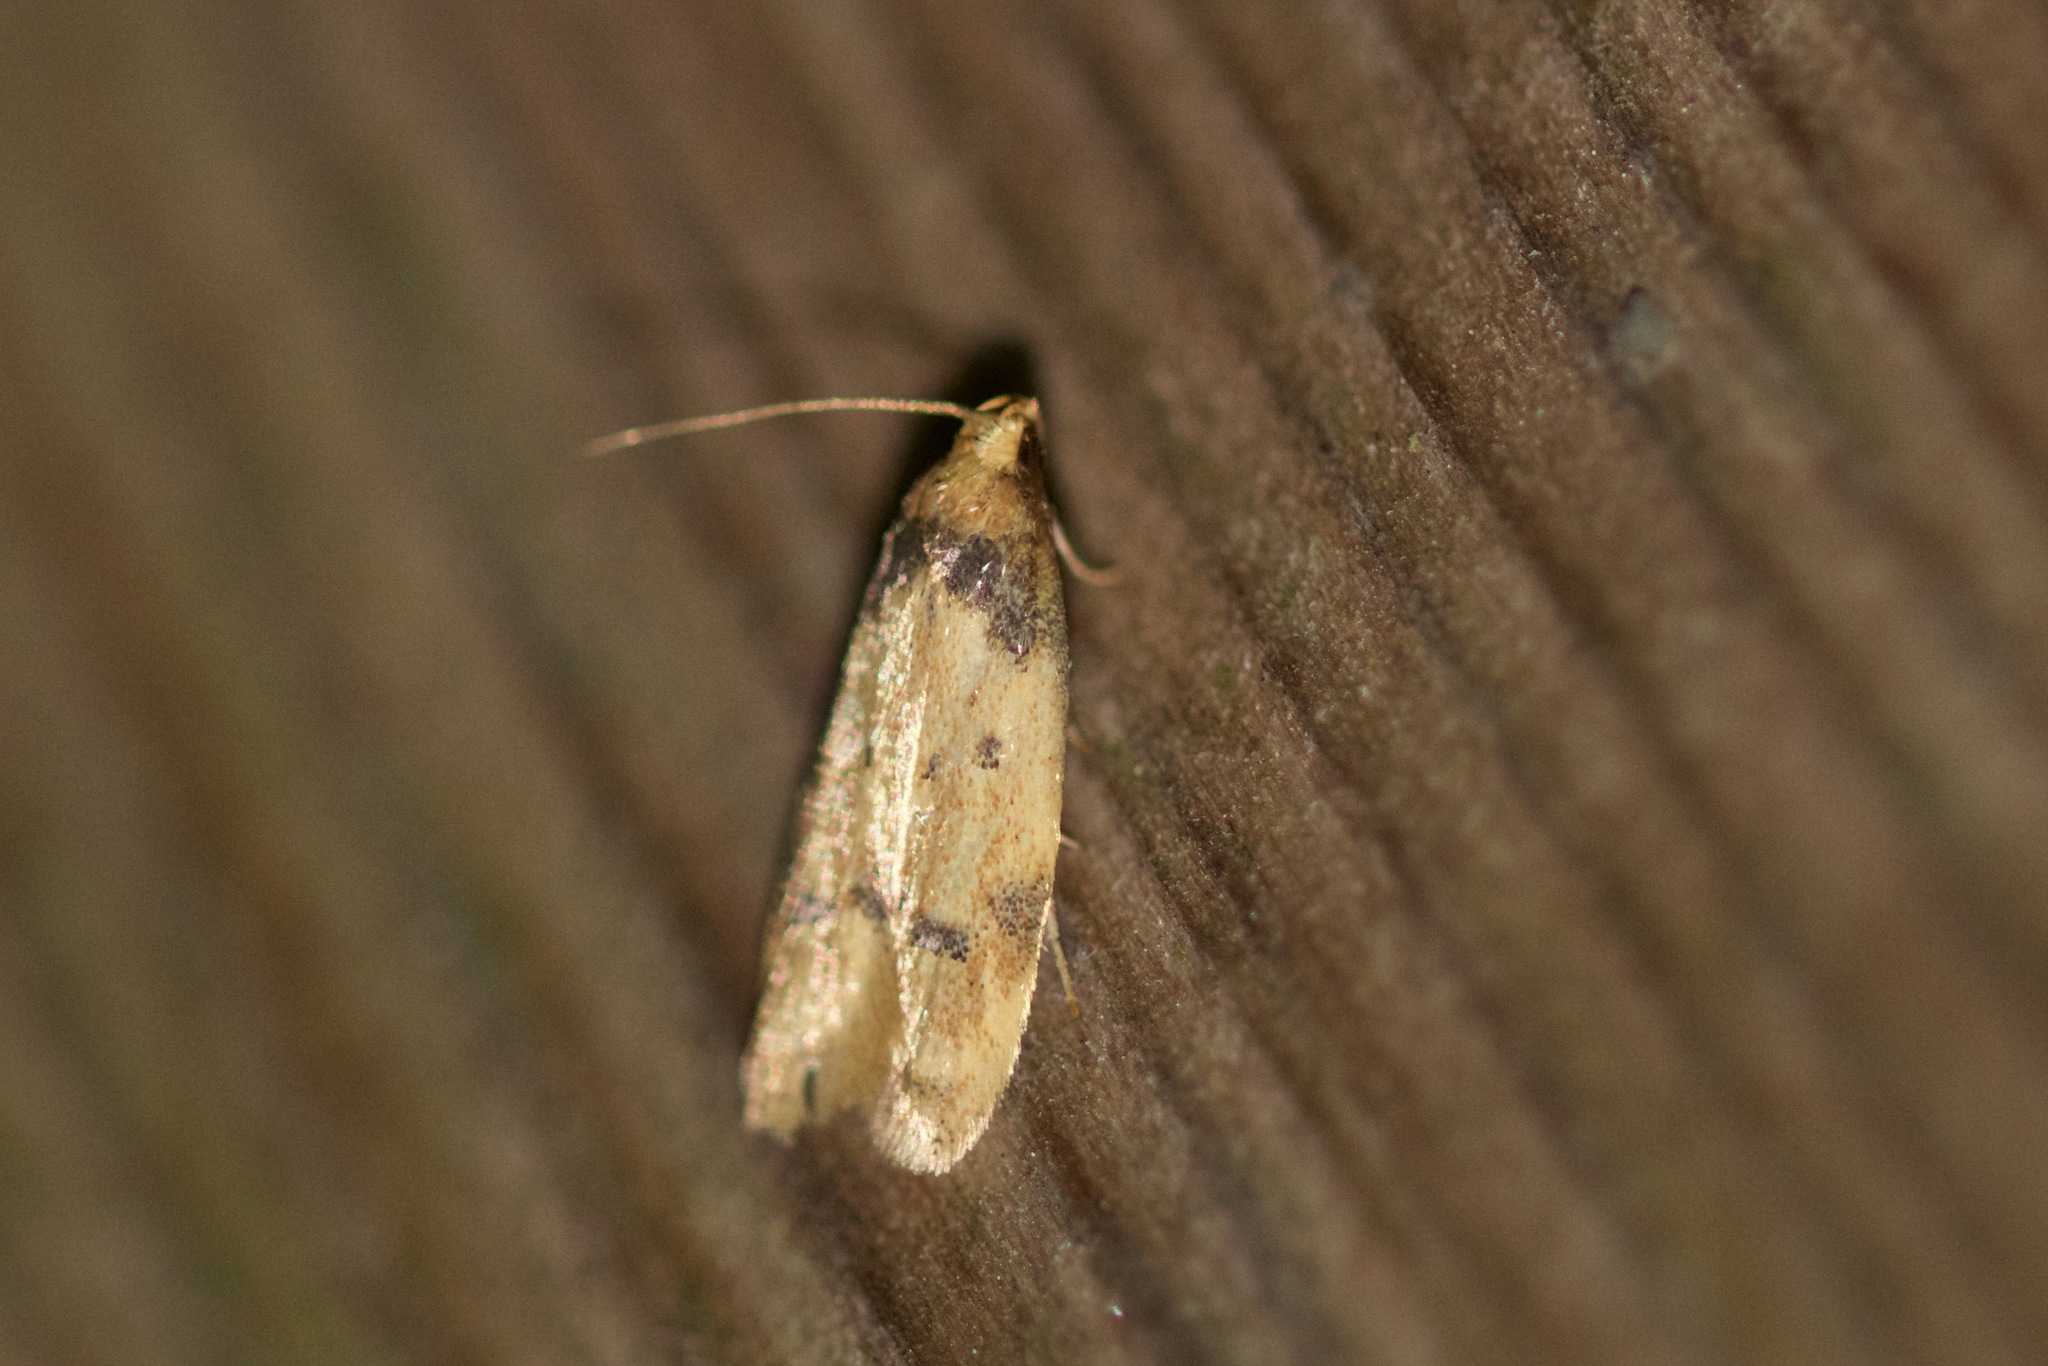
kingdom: Animalia
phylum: Arthropoda
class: Insecta
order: Lepidoptera
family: Autostichidae
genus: Gerdana
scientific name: Gerdana caritella
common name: Gerdana moth
